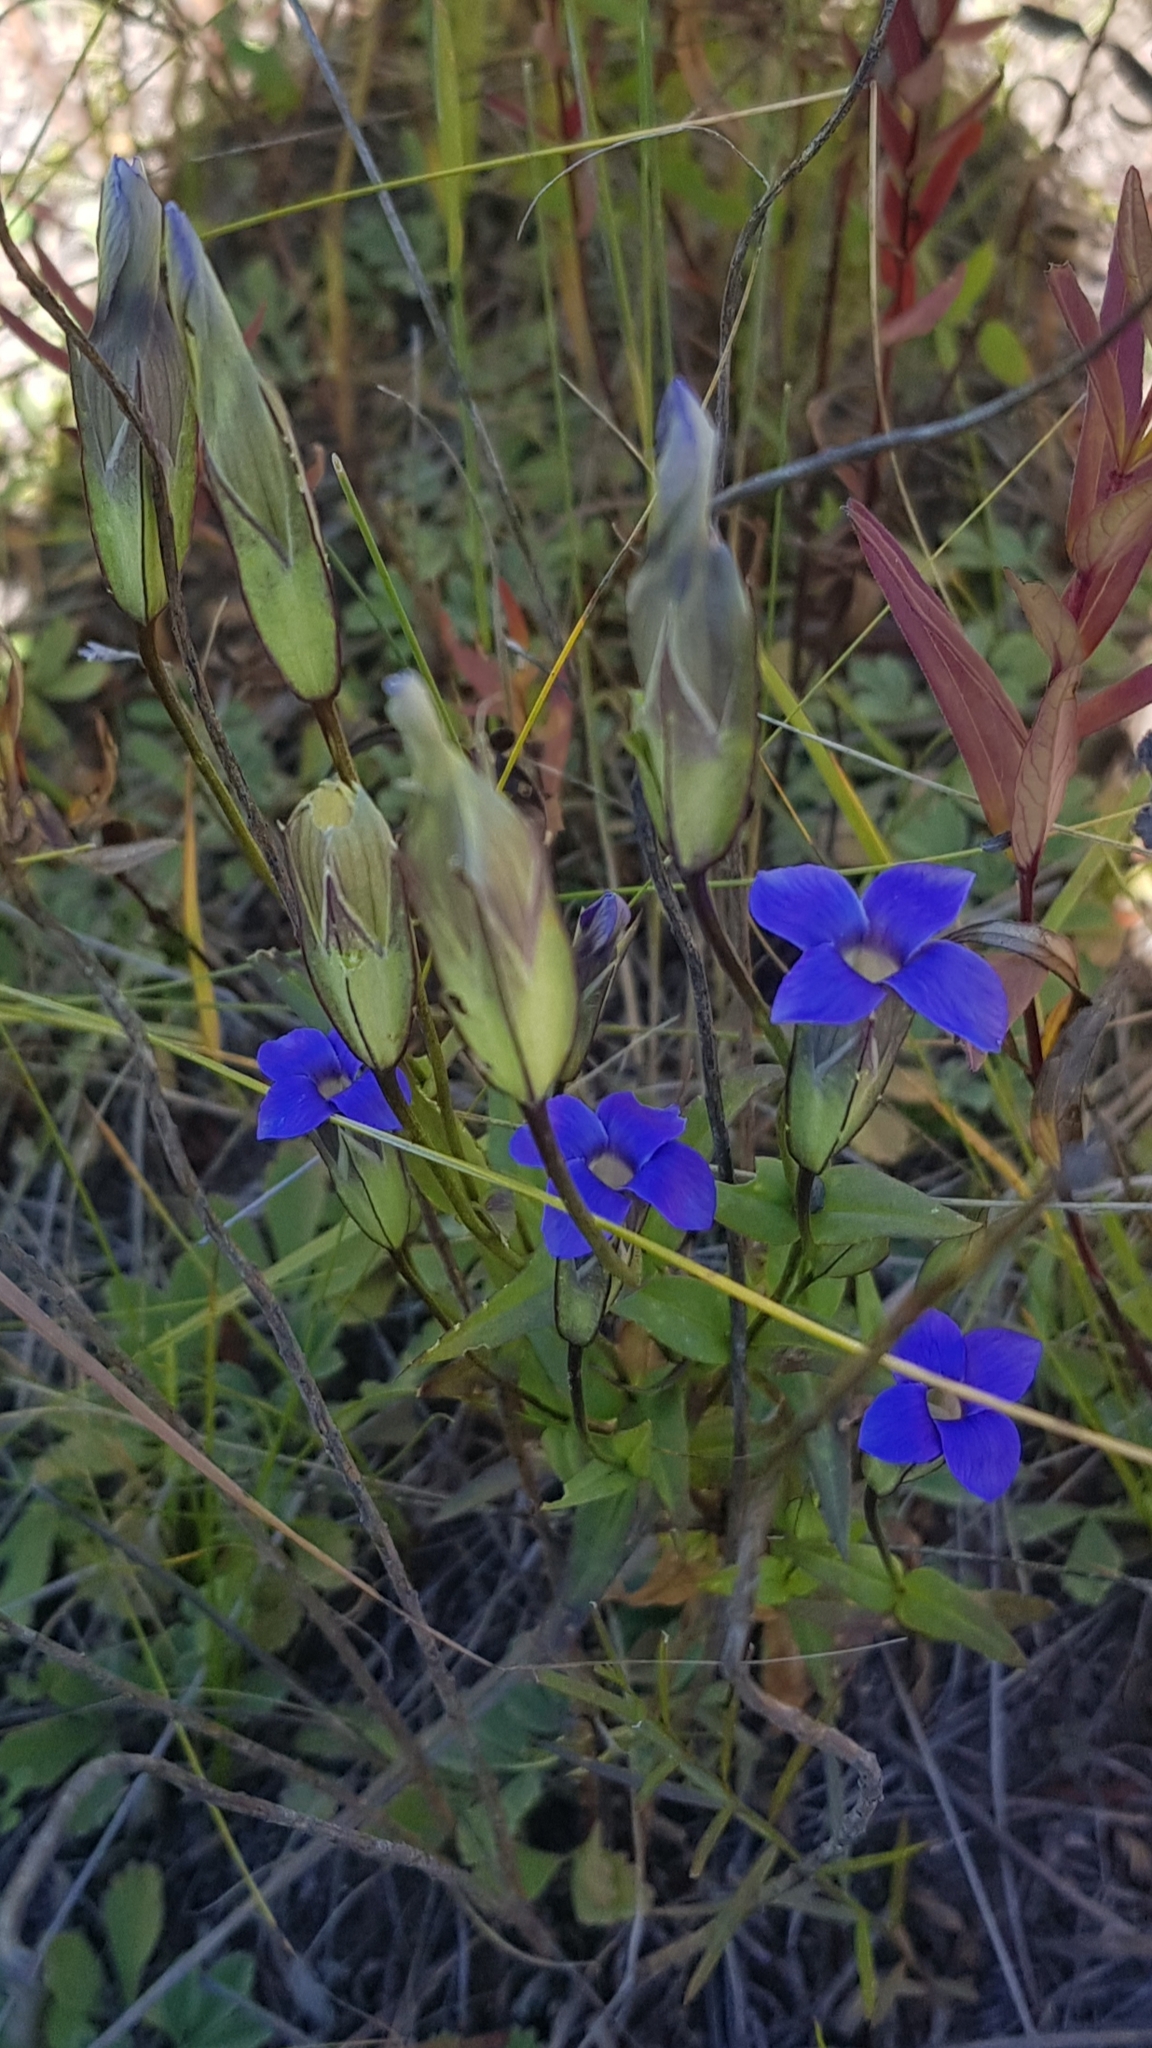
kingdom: Plantae
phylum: Tracheophyta
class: Magnoliopsida
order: Gentianales
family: Gentianaceae
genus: Gentianopsis
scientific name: Gentianopsis barbata
